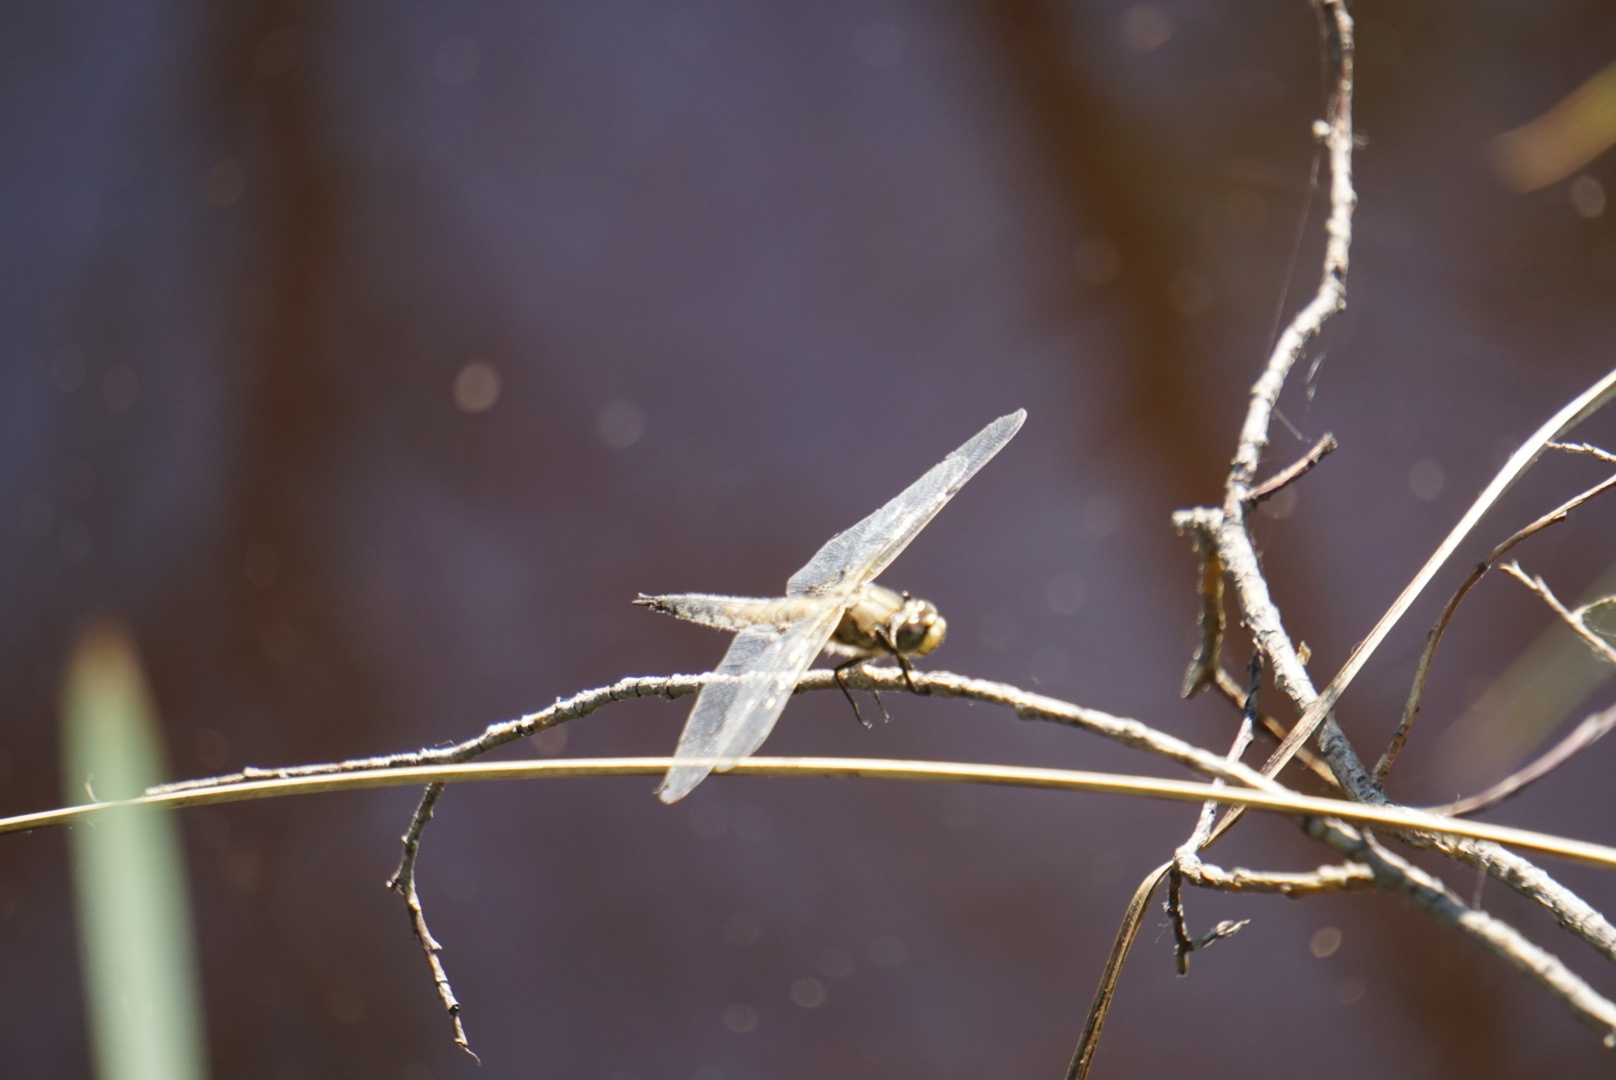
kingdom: Animalia
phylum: Arthropoda
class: Insecta
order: Odonata
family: Libellulidae
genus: Libellula
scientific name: Libellula quadrimaculata
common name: Four-spotted chaser
